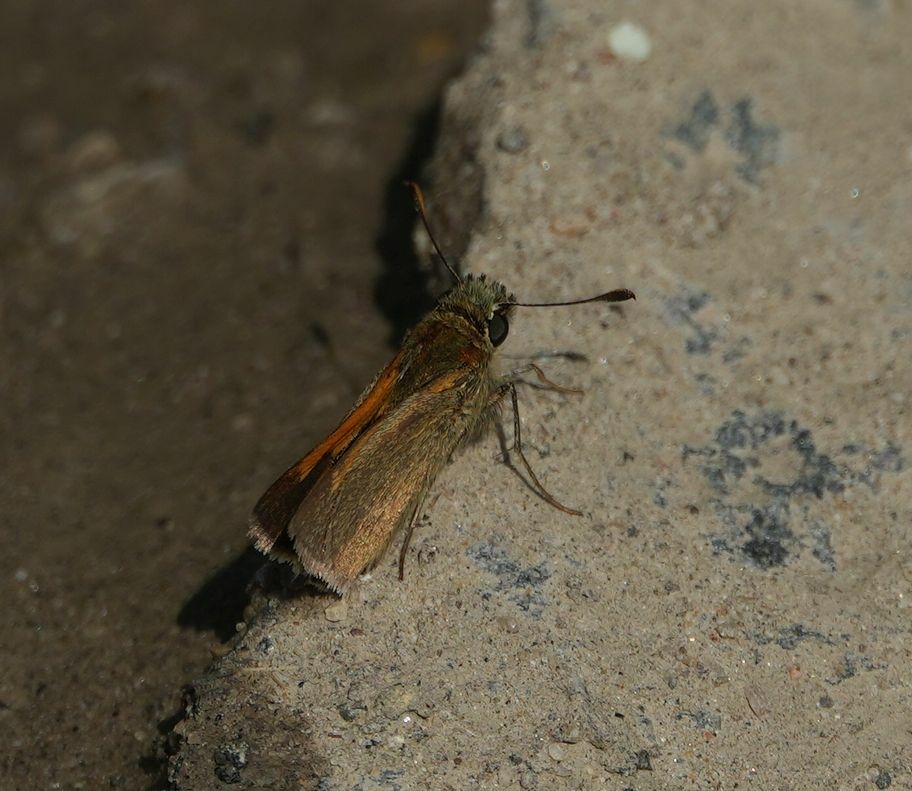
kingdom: Animalia
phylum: Arthropoda
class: Insecta
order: Lepidoptera
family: Hesperiidae
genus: Polites
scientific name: Polites themistocles
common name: Tawny-edged skipper
